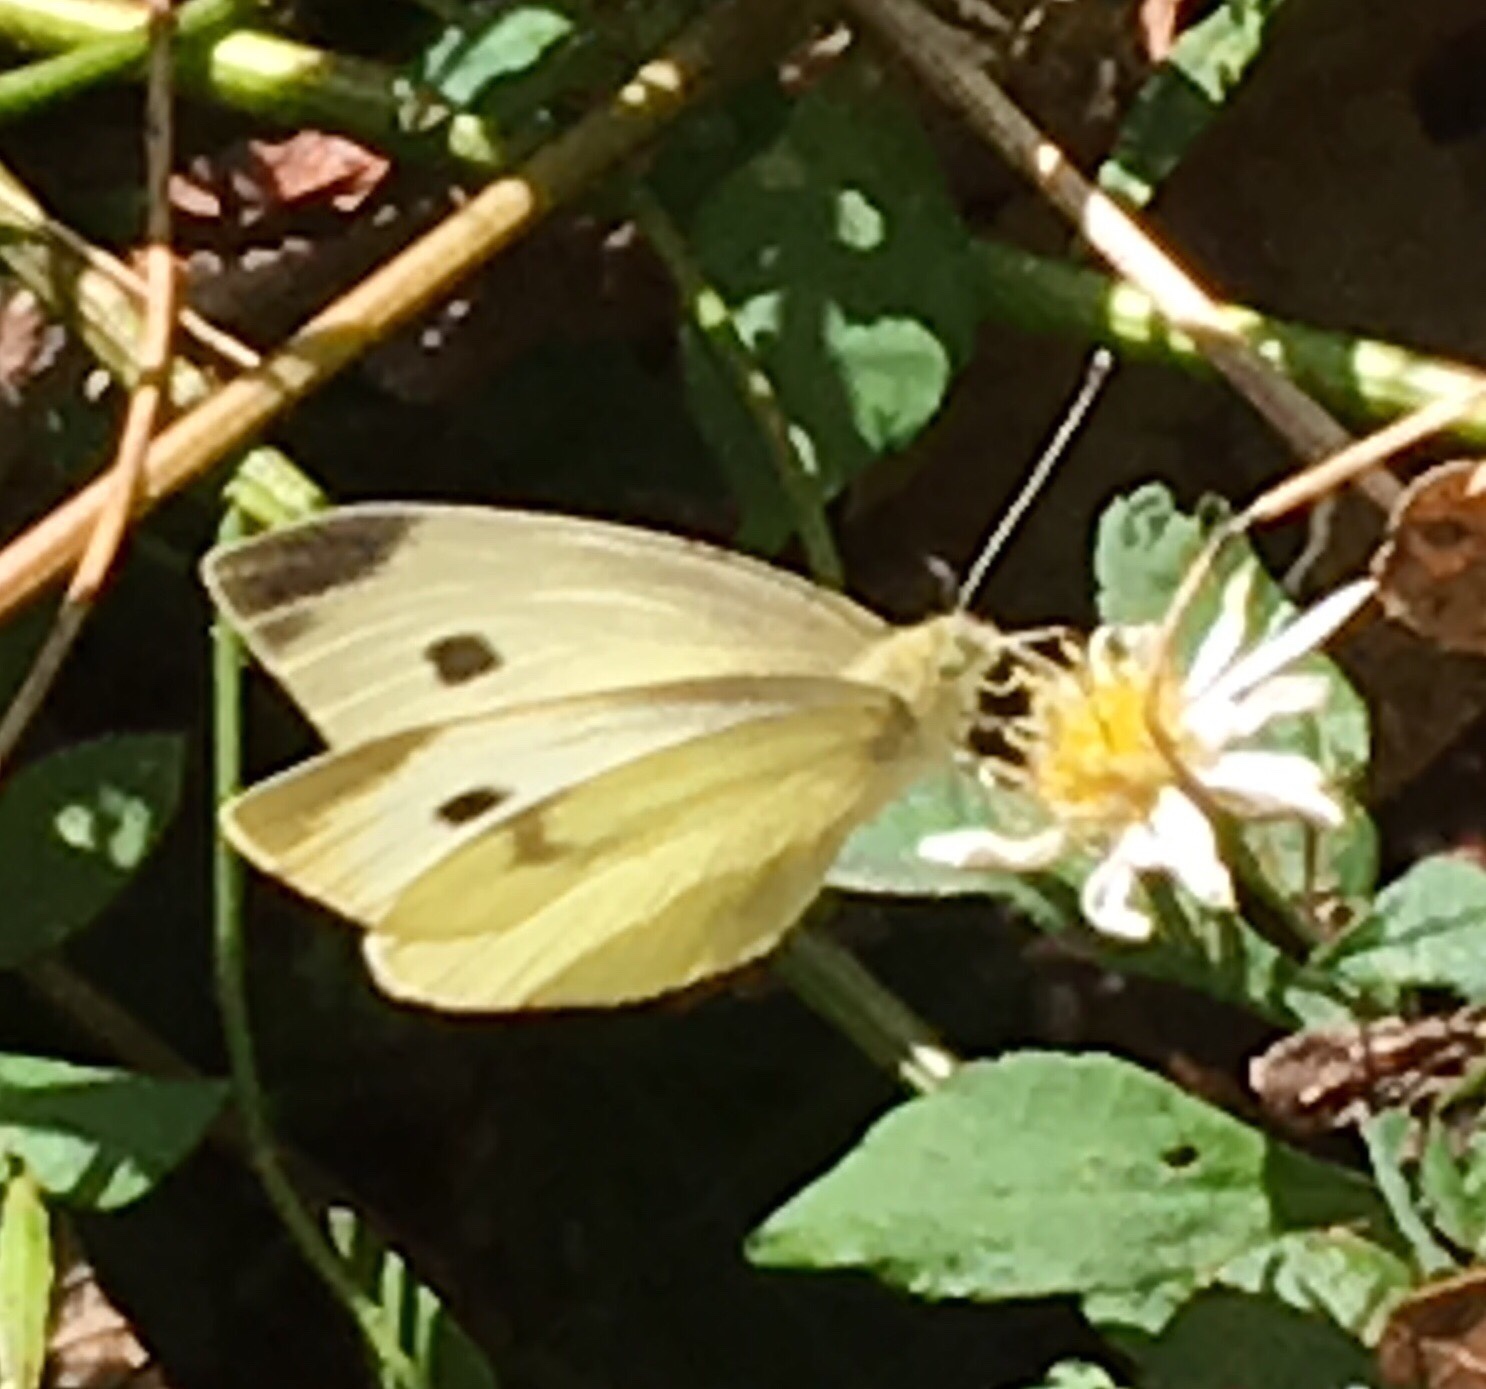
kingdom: Animalia
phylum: Arthropoda
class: Insecta
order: Lepidoptera
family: Pieridae
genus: Pieris
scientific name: Pieris rapae
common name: Small white
